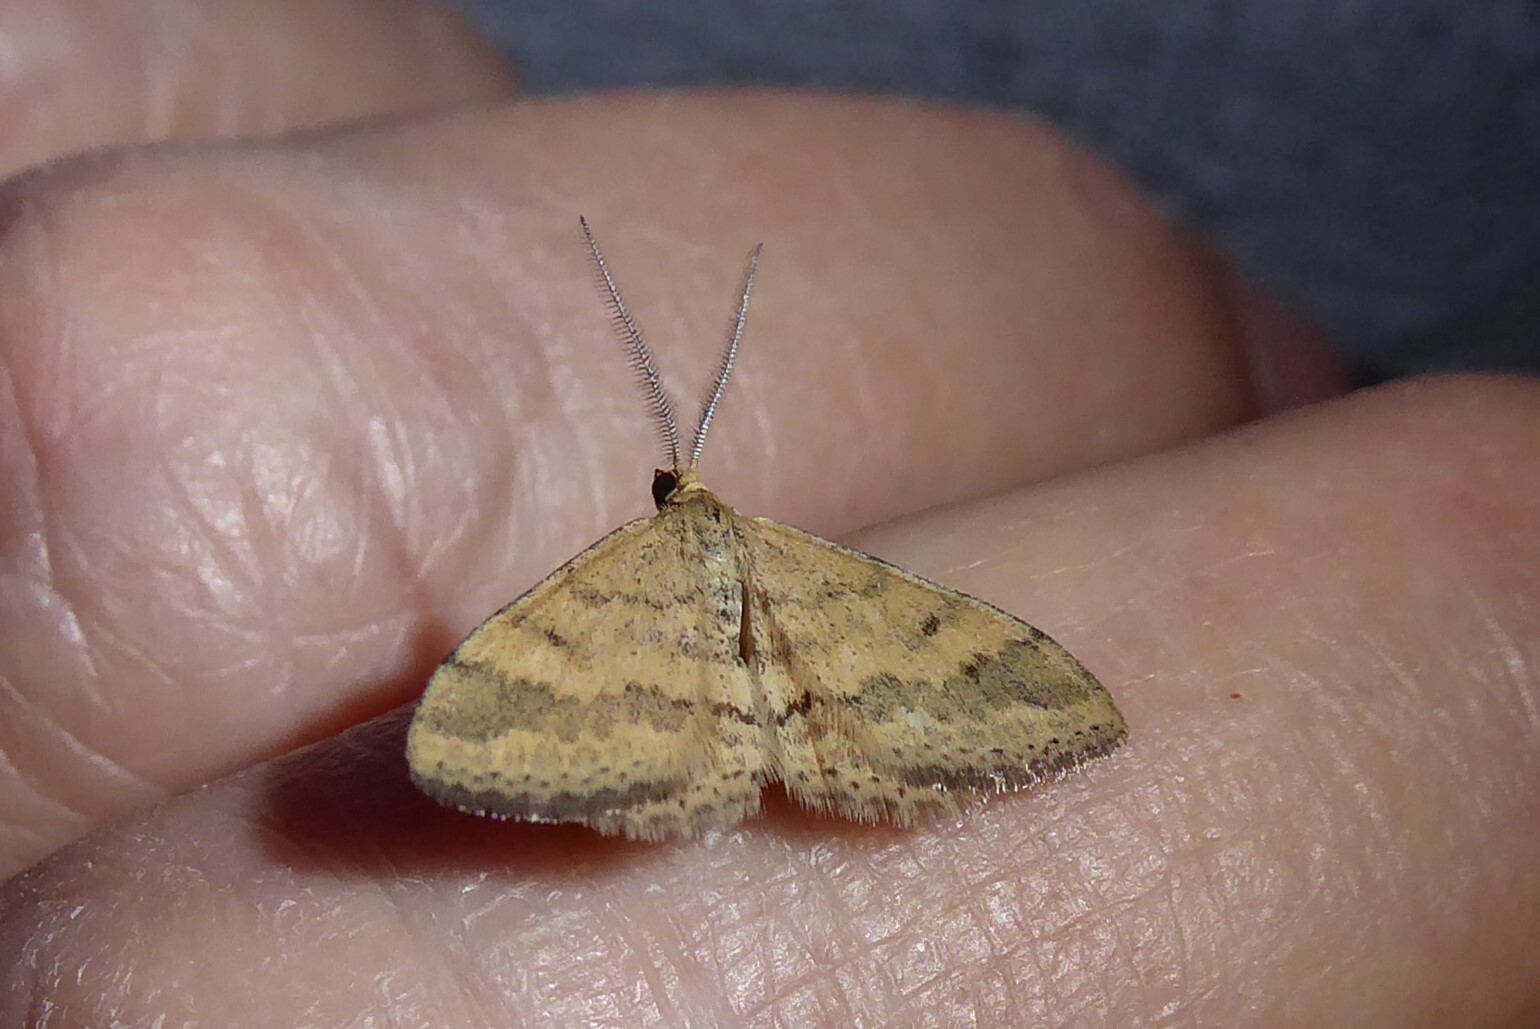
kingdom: Animalia
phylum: Arthropoda
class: Insecta
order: Lepidoptera
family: Geometridae
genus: Scopula
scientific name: Scopula rubraria
